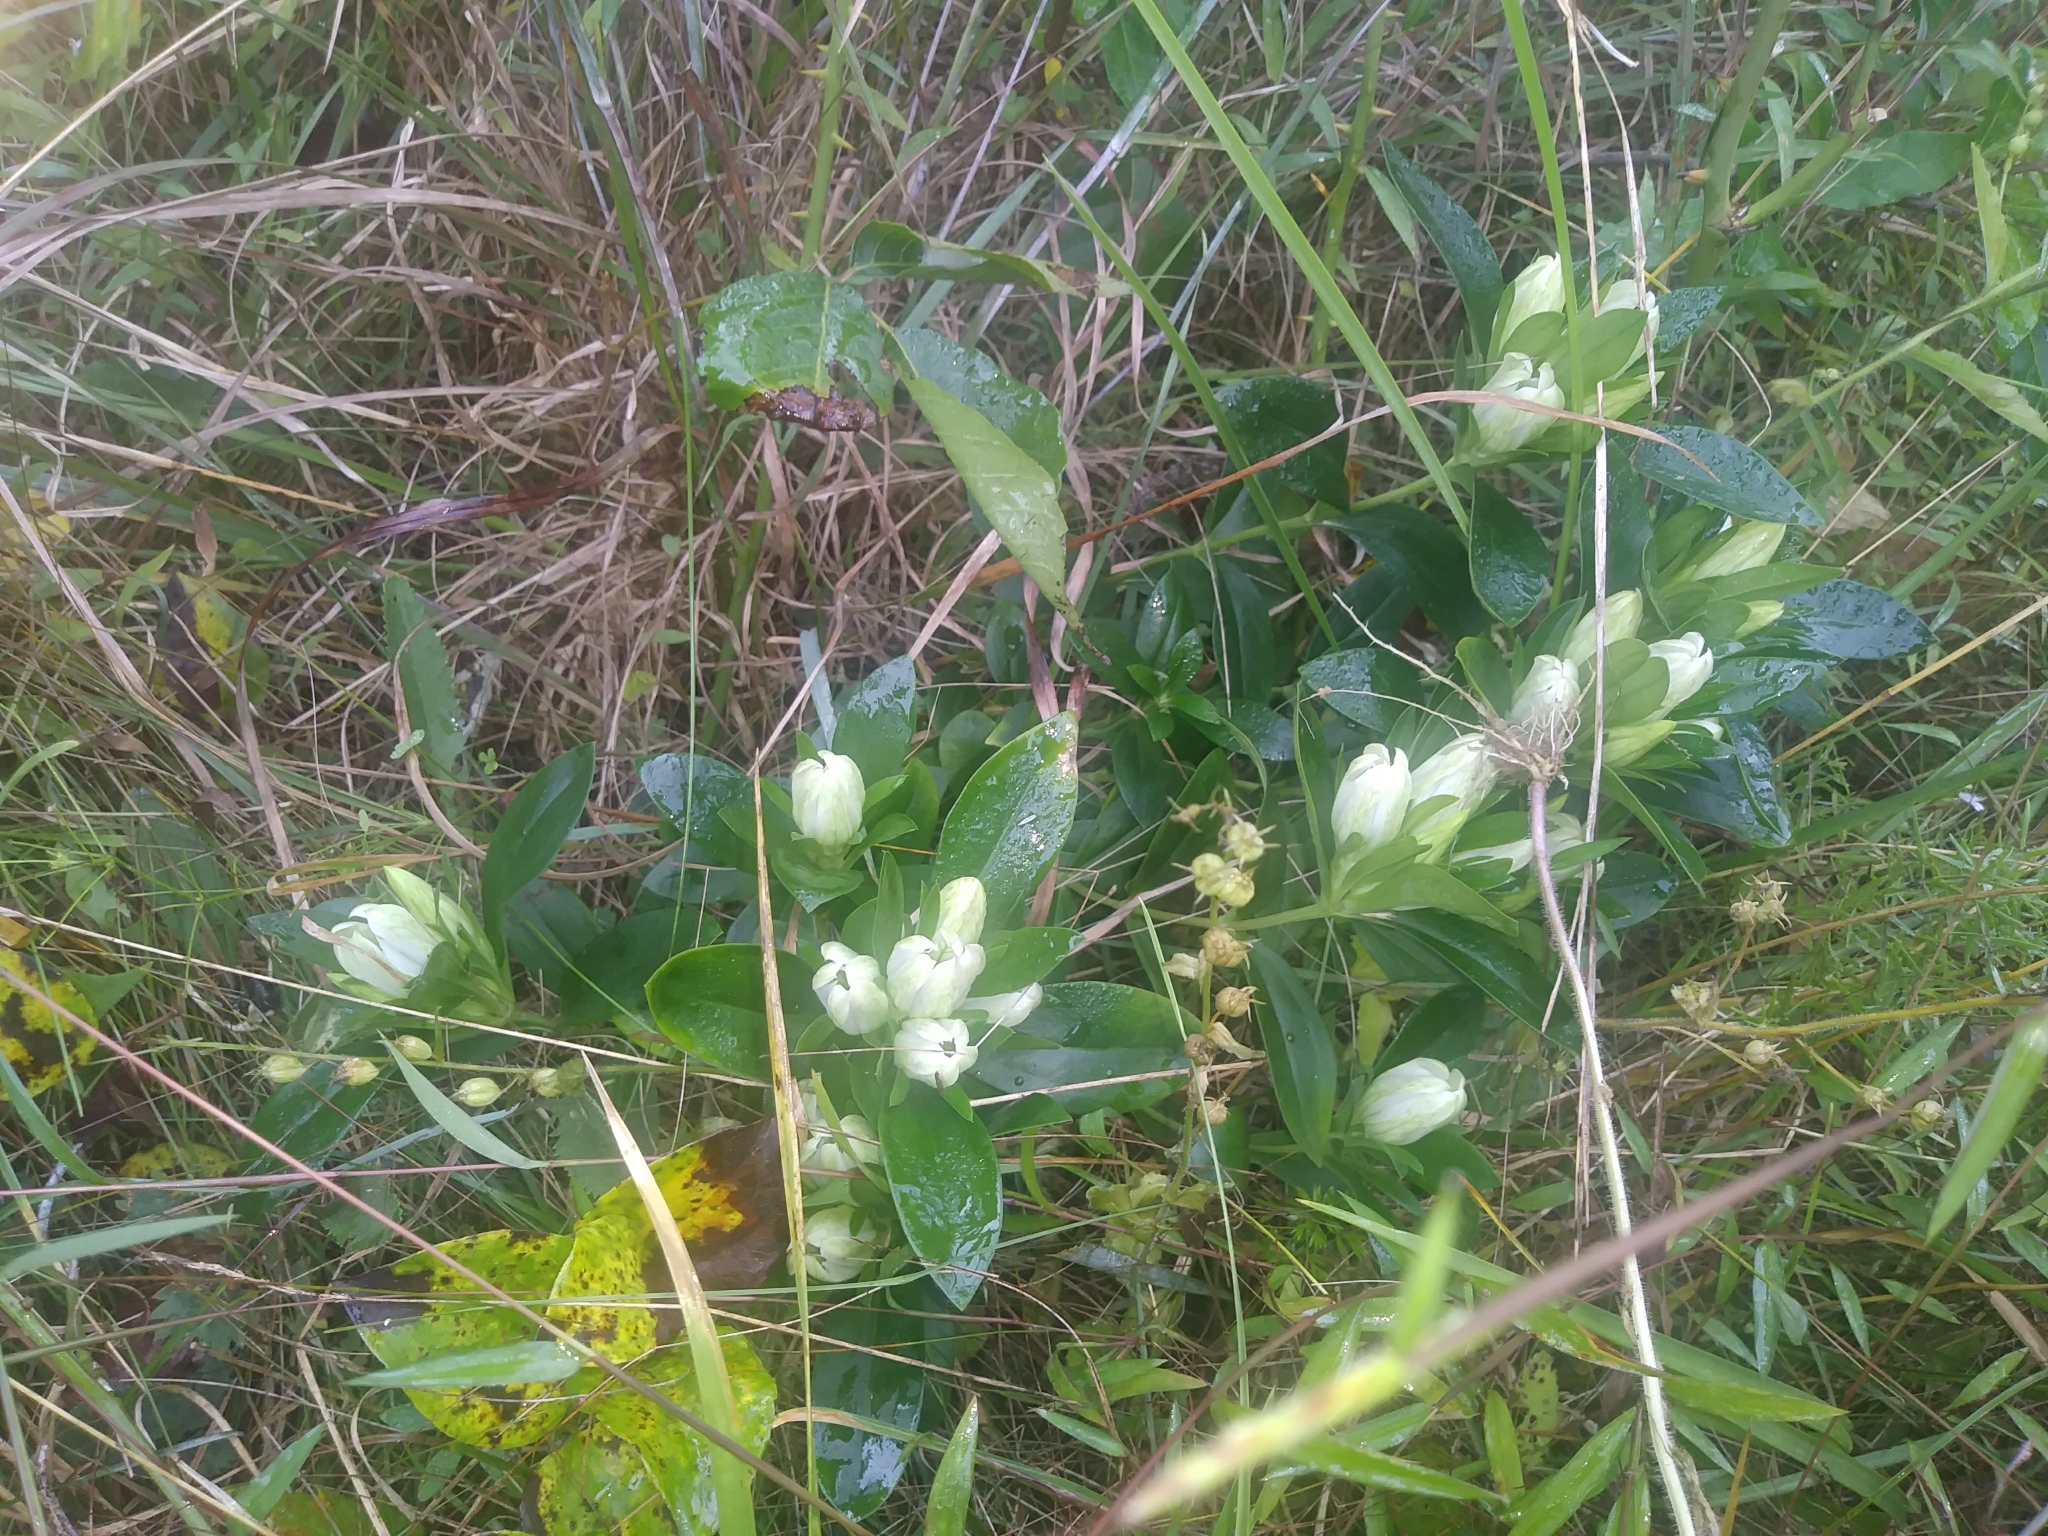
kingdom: Plantae
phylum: Tracheophyta
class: Magnoliopsida
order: Gentianales
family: Gentianaceae
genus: Gentiana
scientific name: Gentiana villosa
